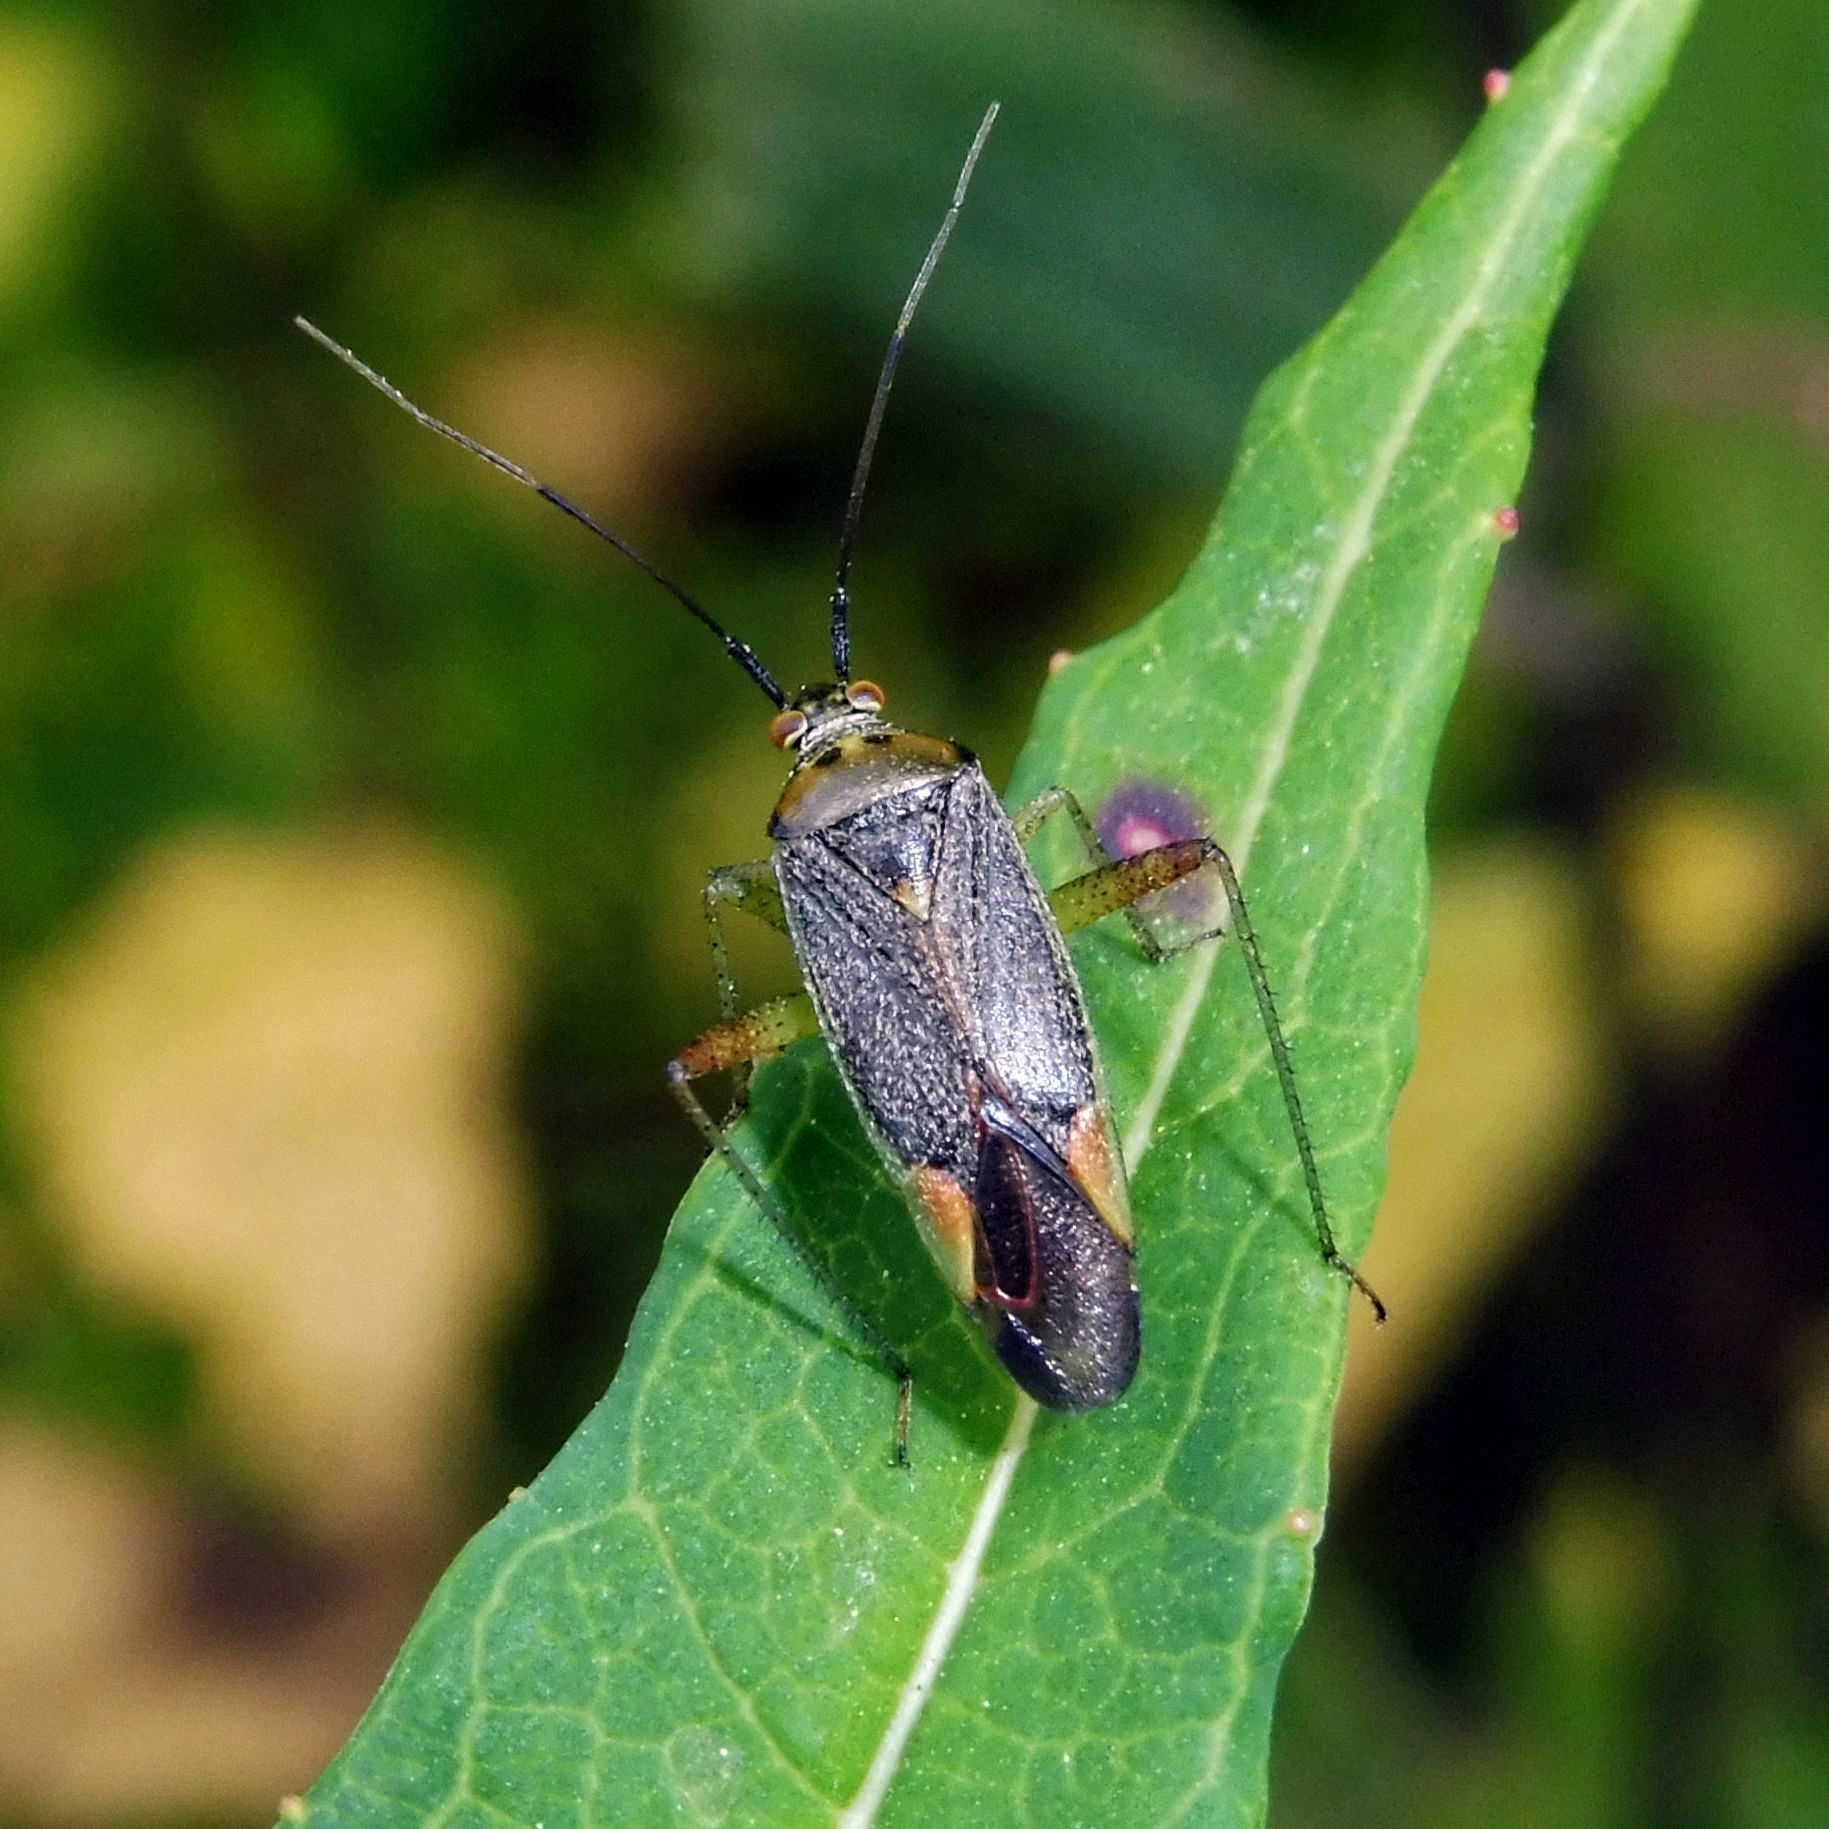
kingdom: Animalia
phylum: Arthropoda
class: Insecta
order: Hemiptera
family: Miridae
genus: Closterotomus
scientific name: Closterotomus trivialis
